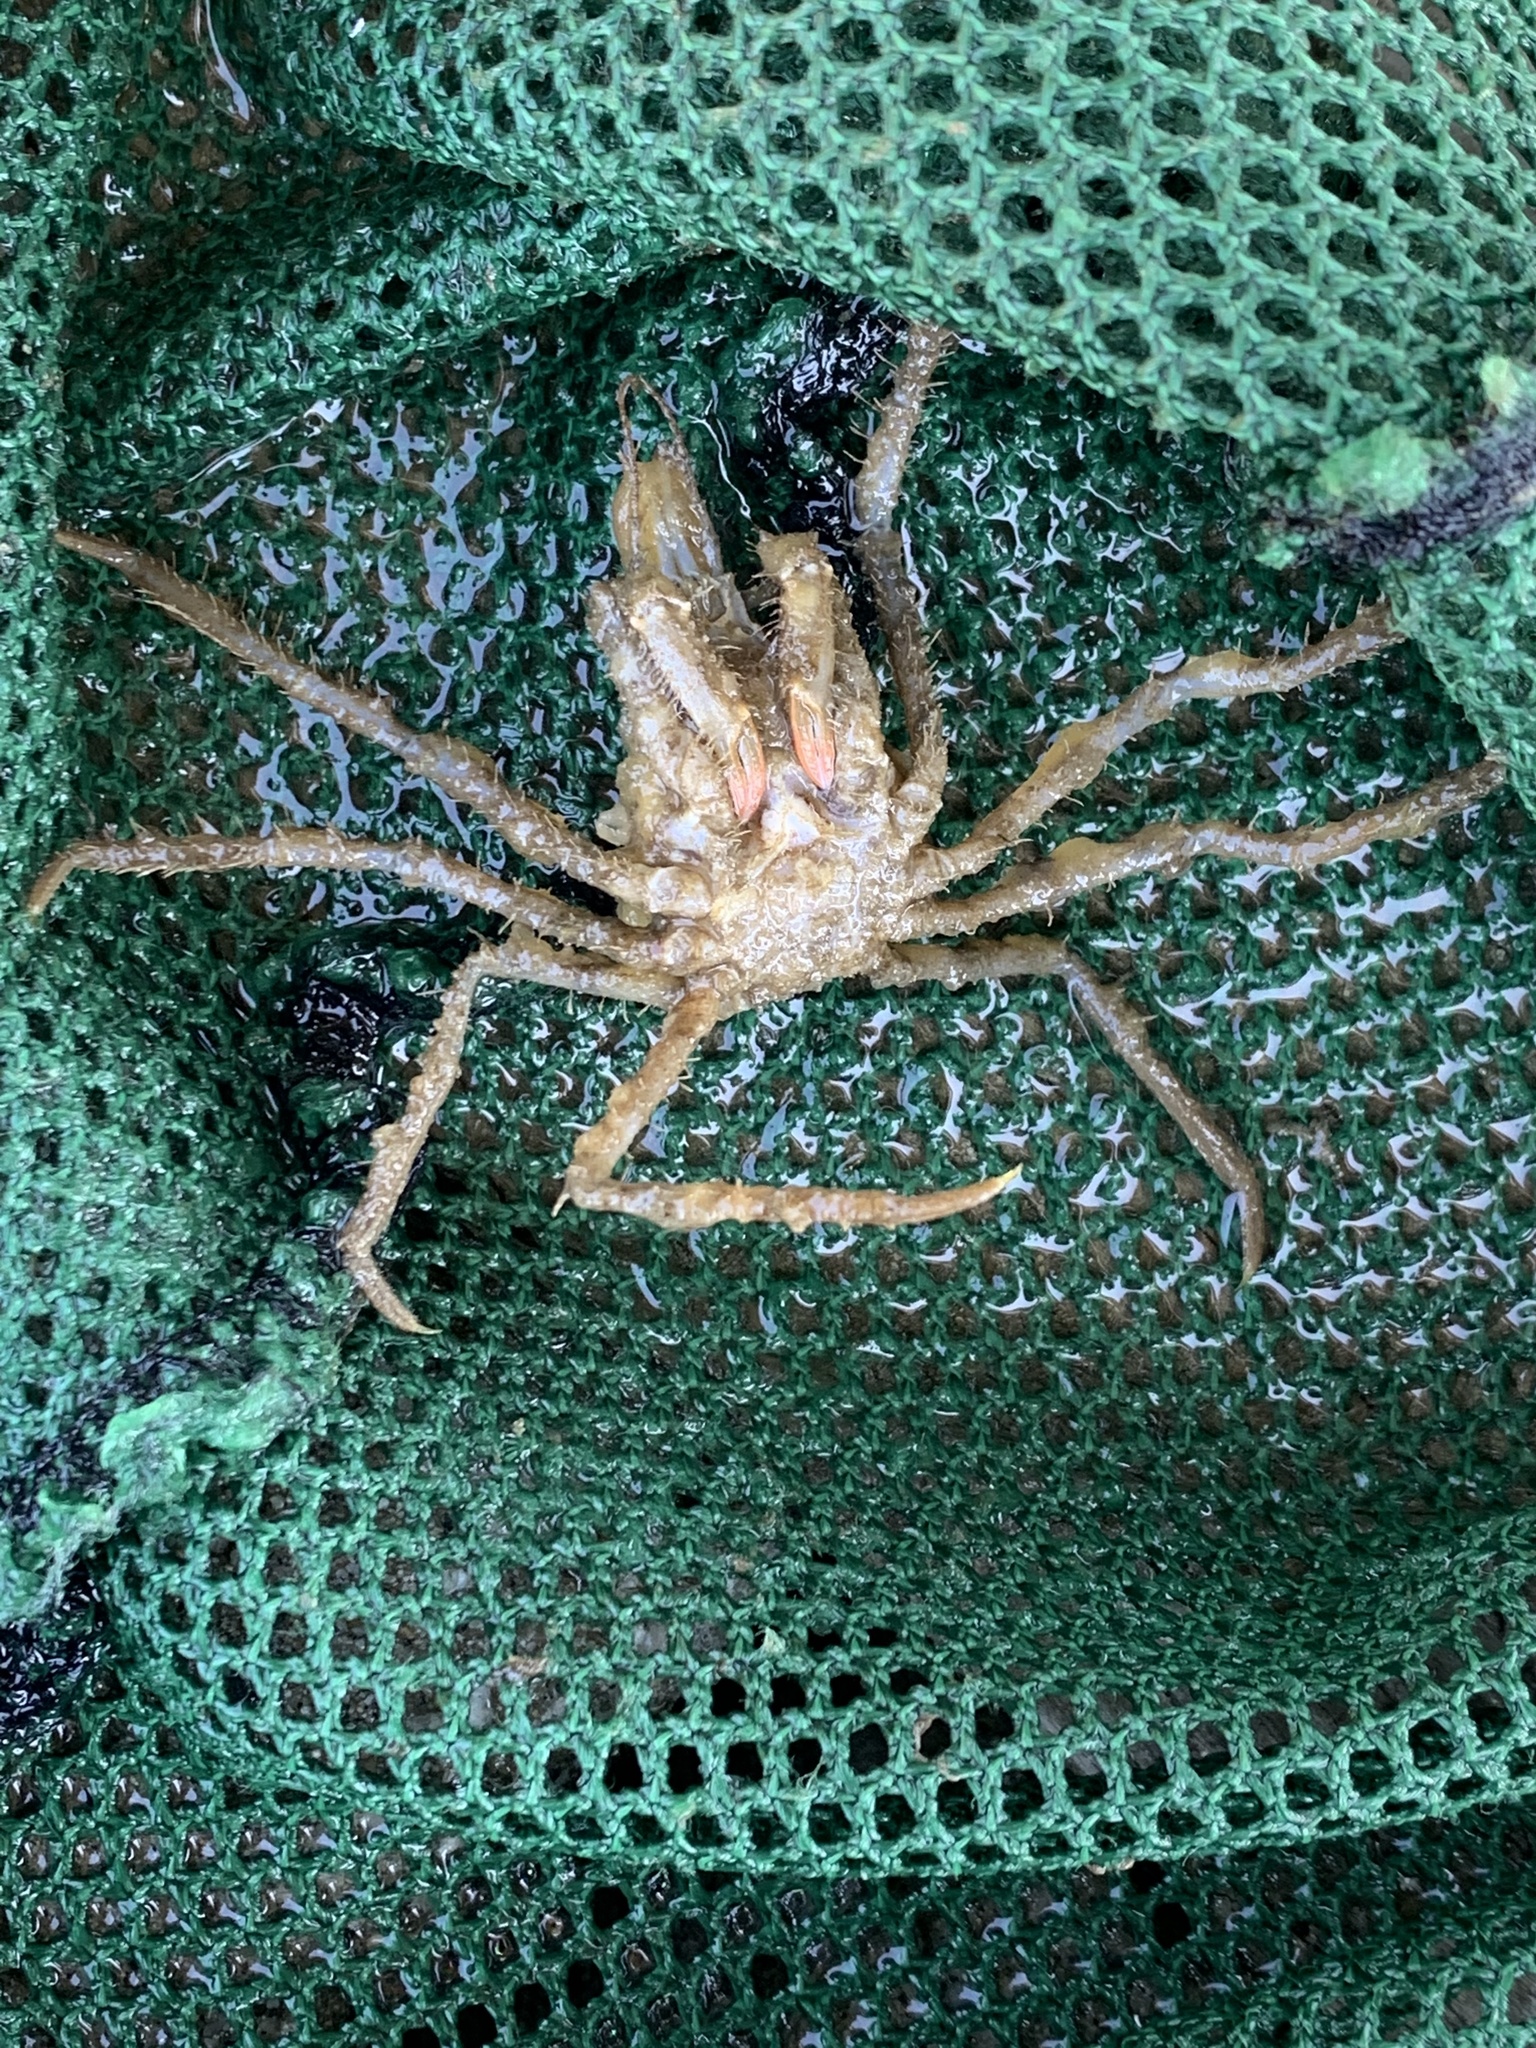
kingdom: Animalia
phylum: Arthropoda
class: Malacostraca
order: Decapoda
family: Oregoniidae
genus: Oregonia
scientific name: Oregonia gracilis
